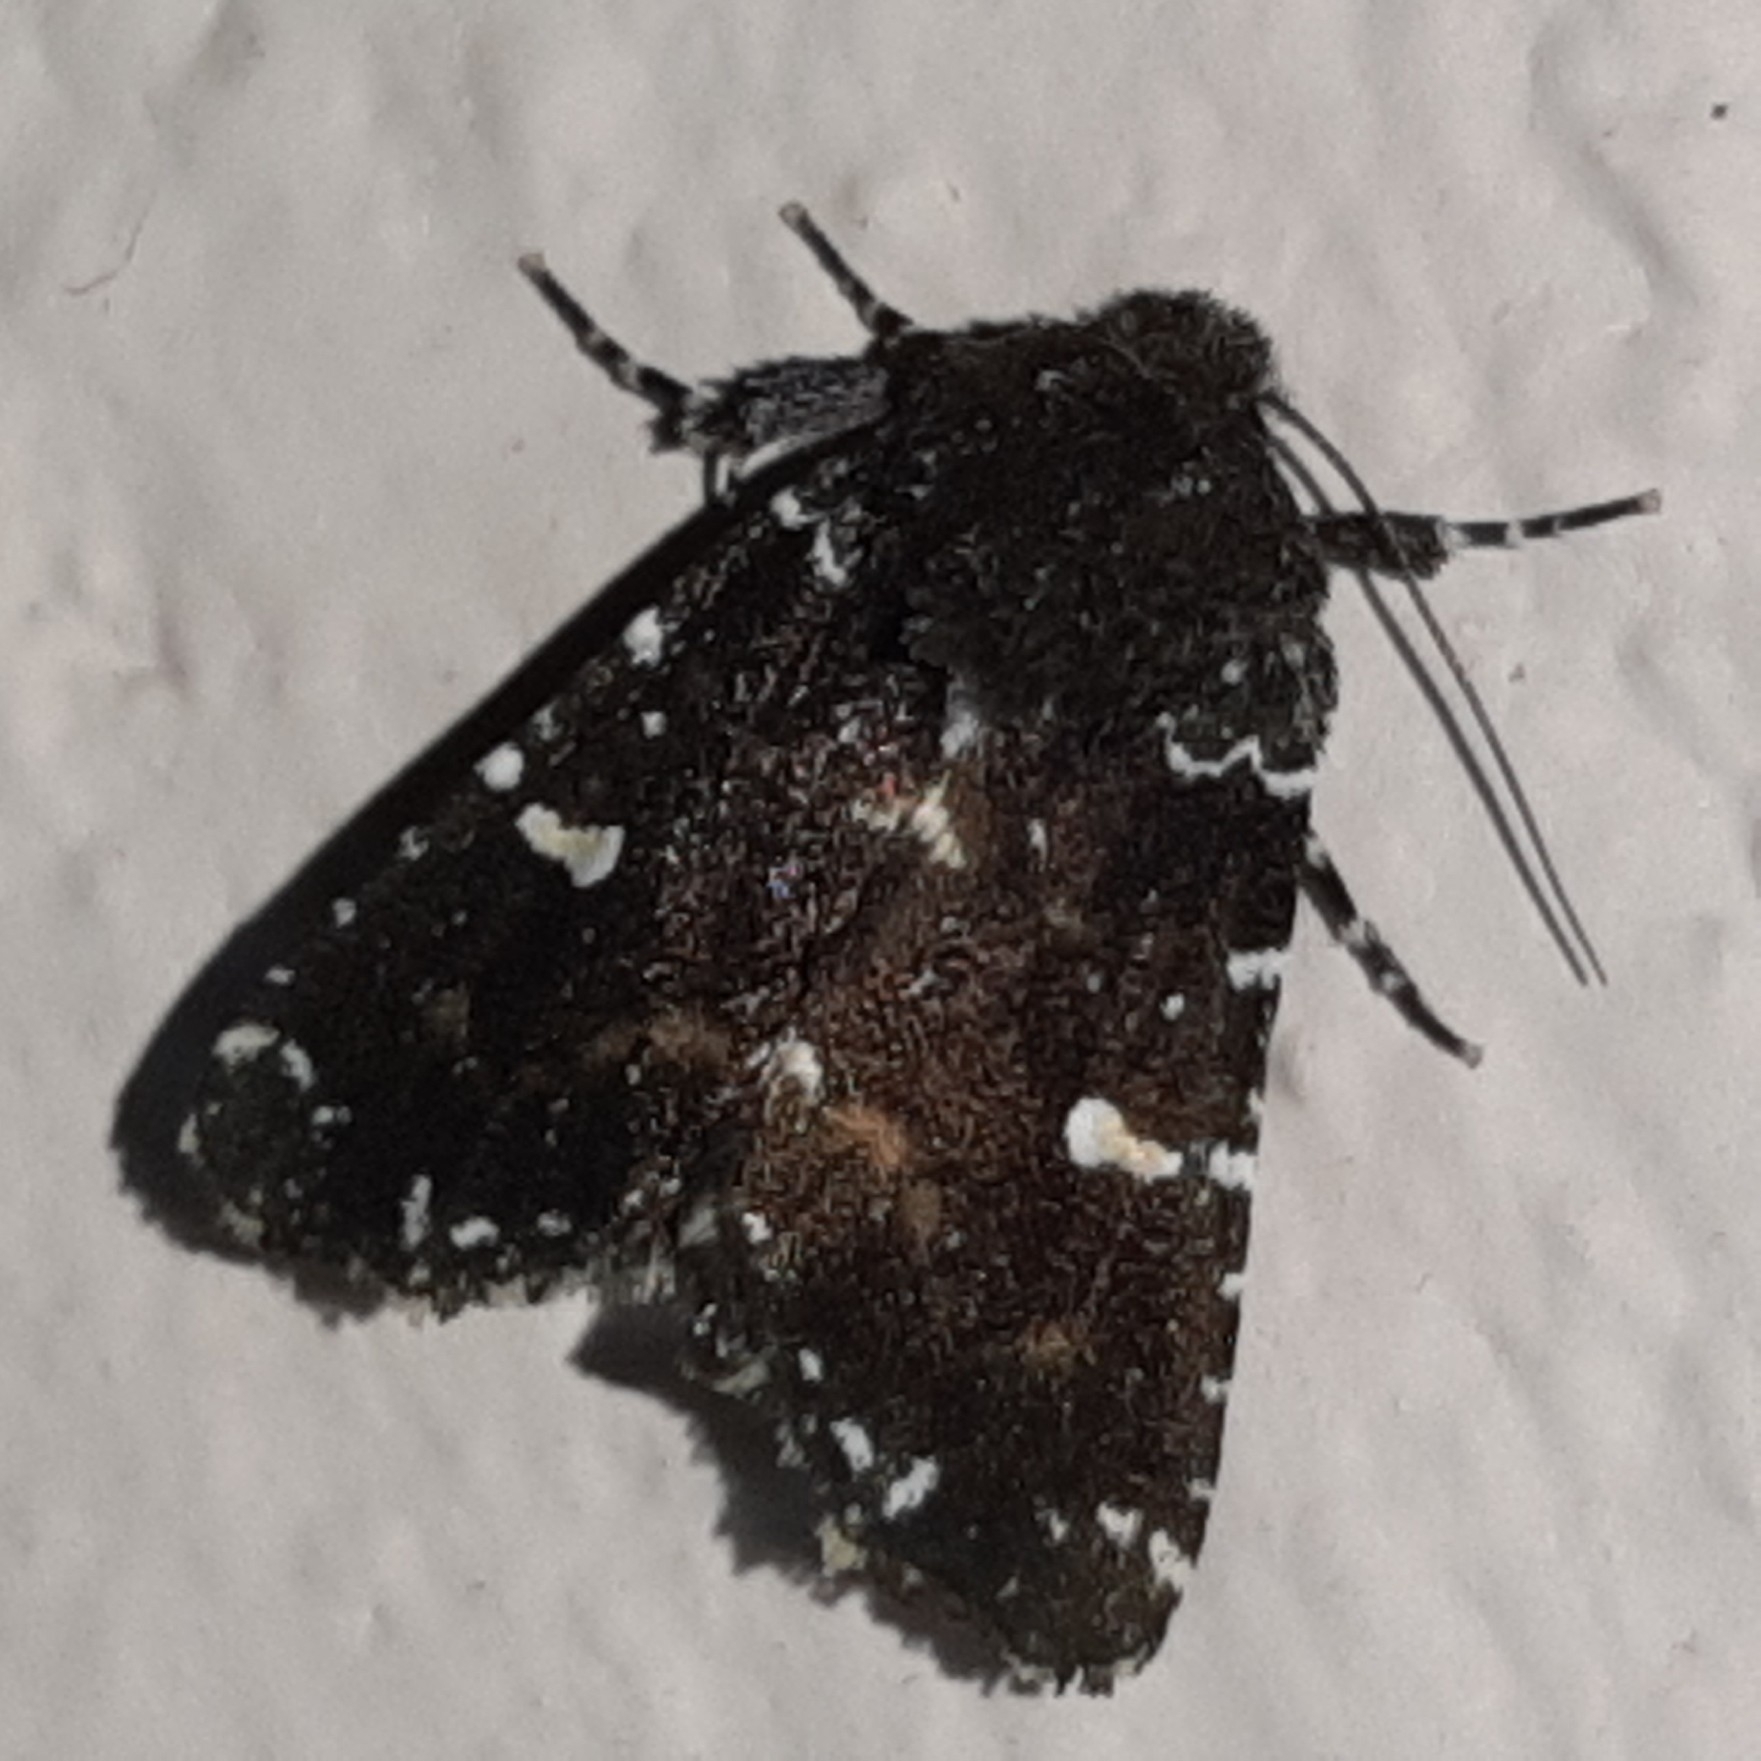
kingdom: Animalia
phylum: Arthropoda
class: Insecta
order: Lepidoptera
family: Noctuidae
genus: Chabuata
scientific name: Chabuata Pastona rudis
